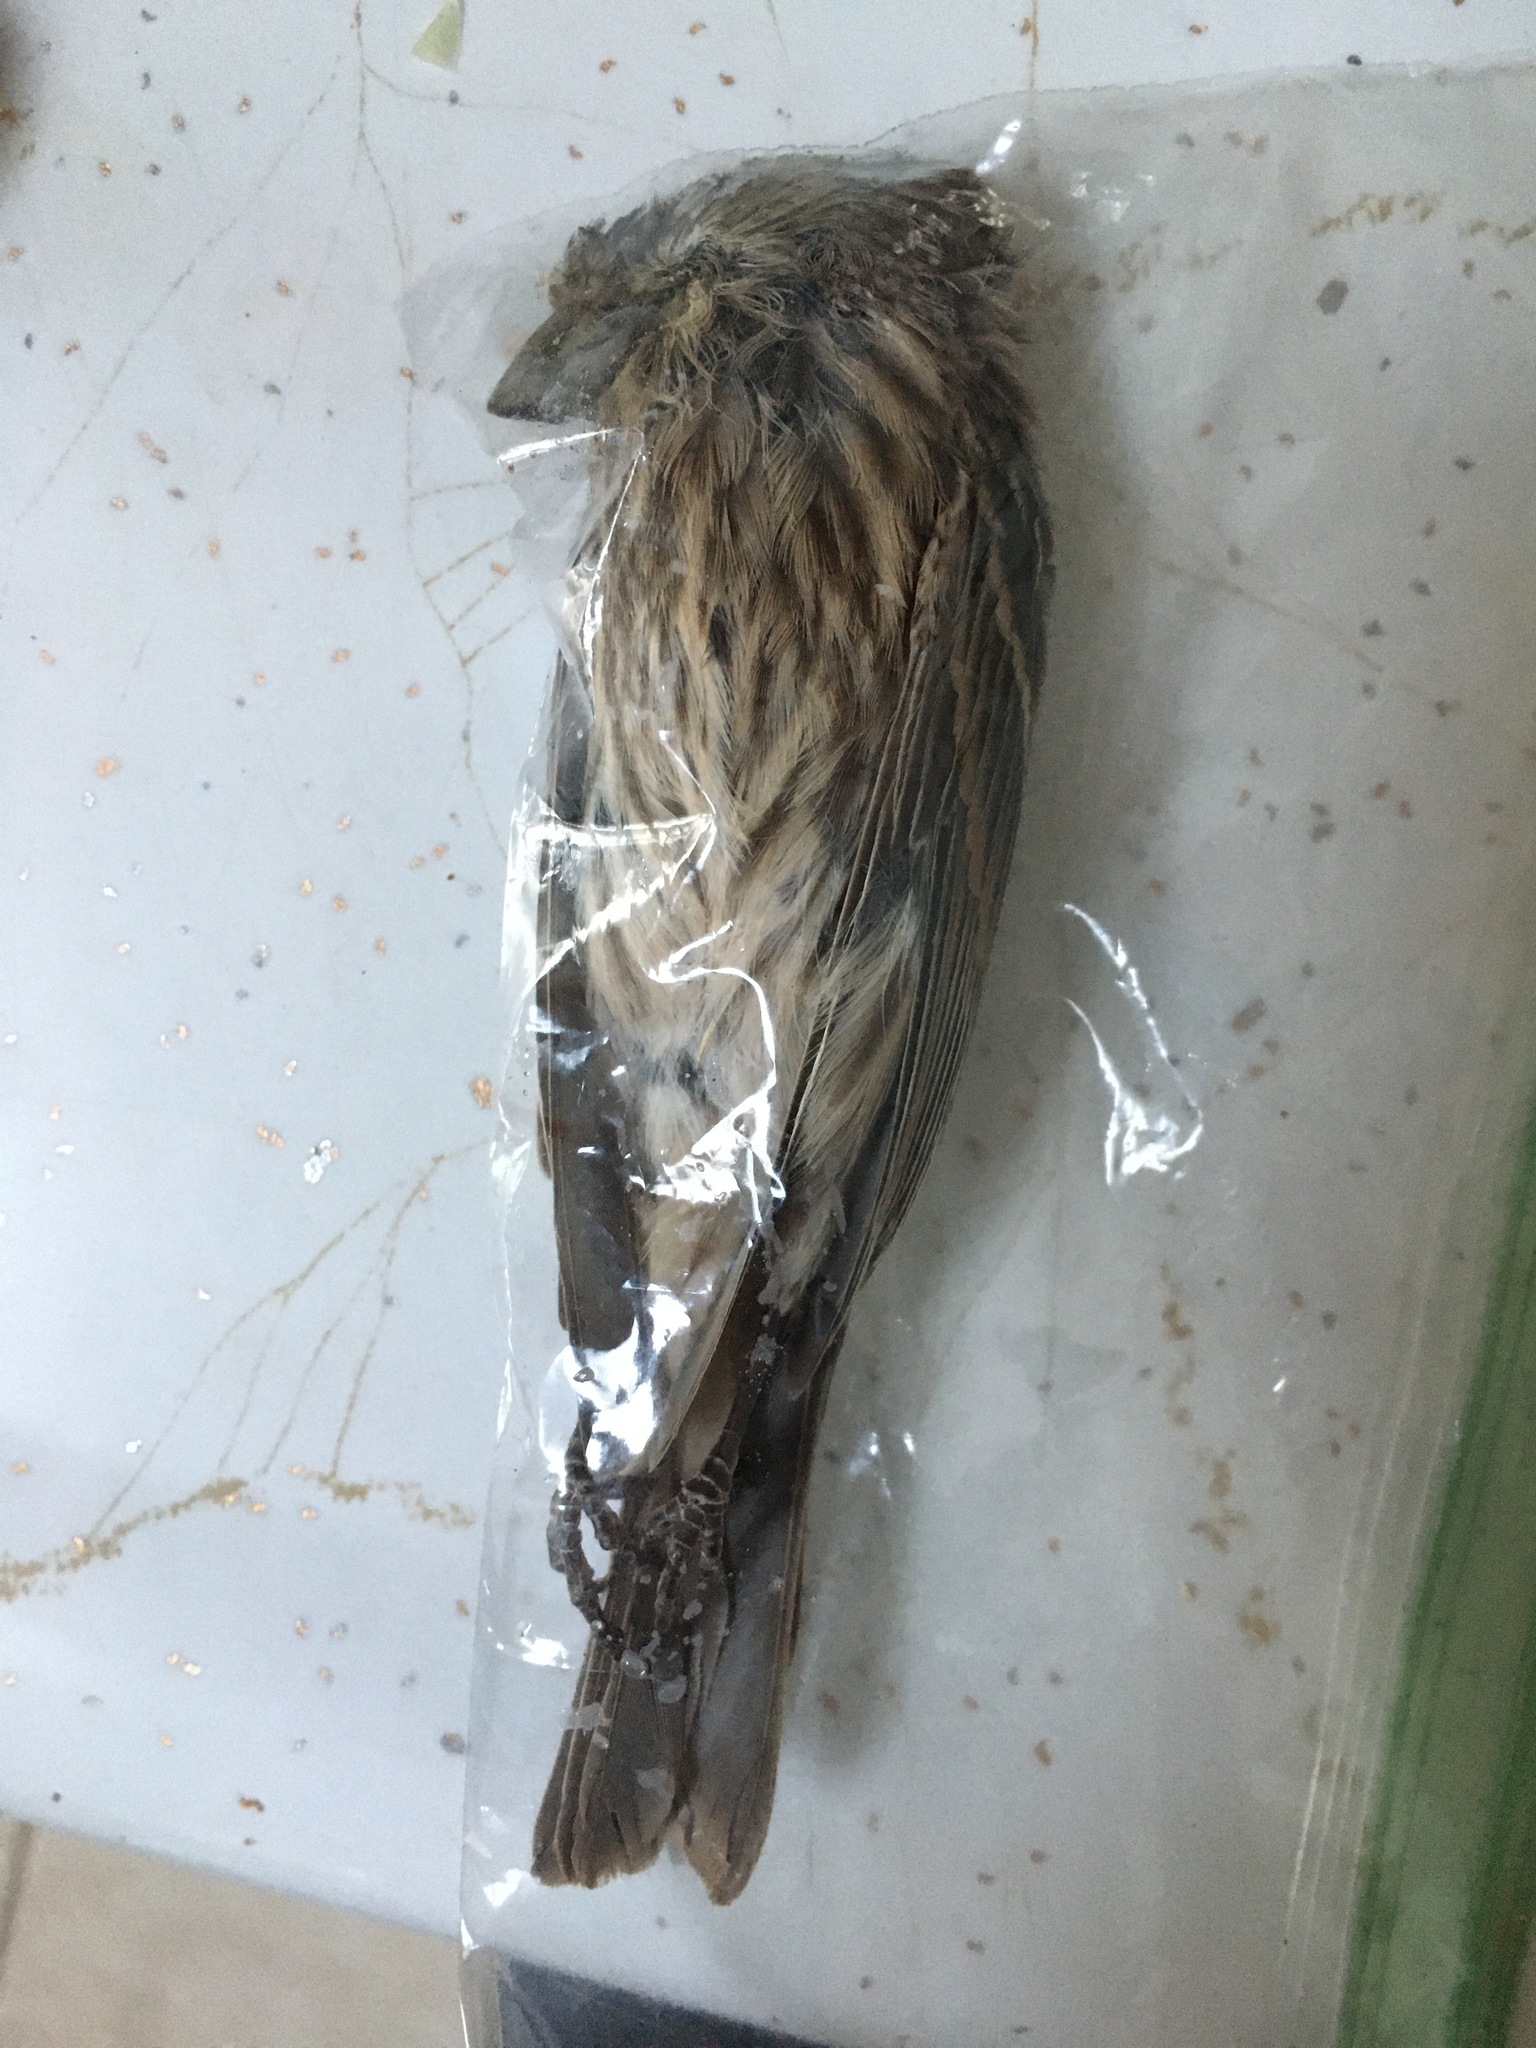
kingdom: Animalia
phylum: Chordata
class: Aves
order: Passeriformes
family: Fringillidae
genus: Haemorhous
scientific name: Haemorhous mexicanus
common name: House finch
